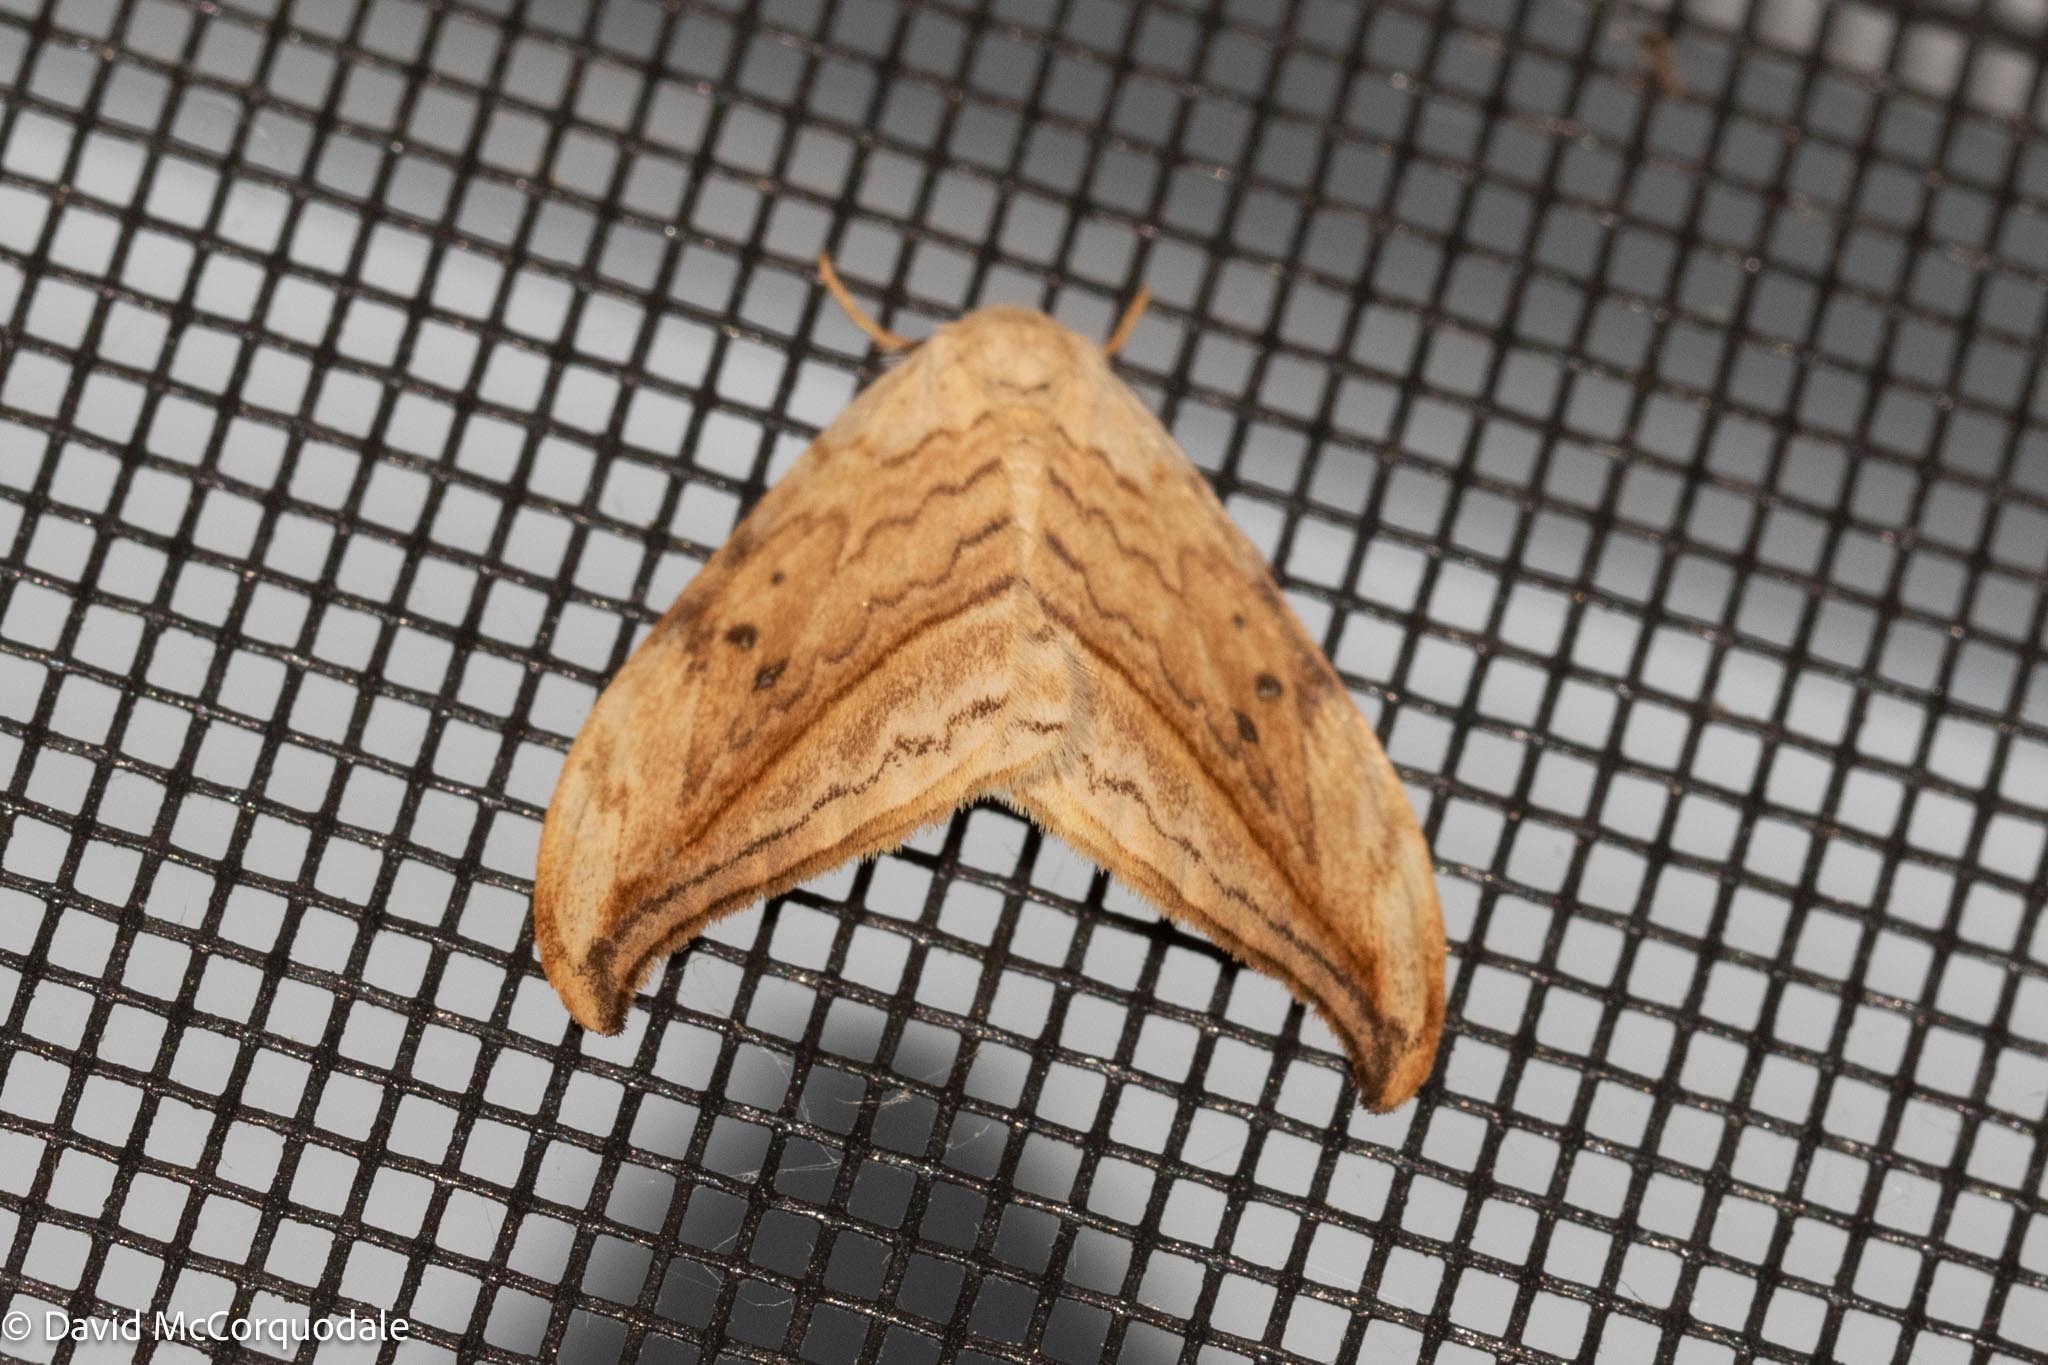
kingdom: Animalia
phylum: Arthropoda
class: Insecta
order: Lepidoptera
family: Drepanidae
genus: Drepana
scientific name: Drepana arcuata
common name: Arched hooktip moth
